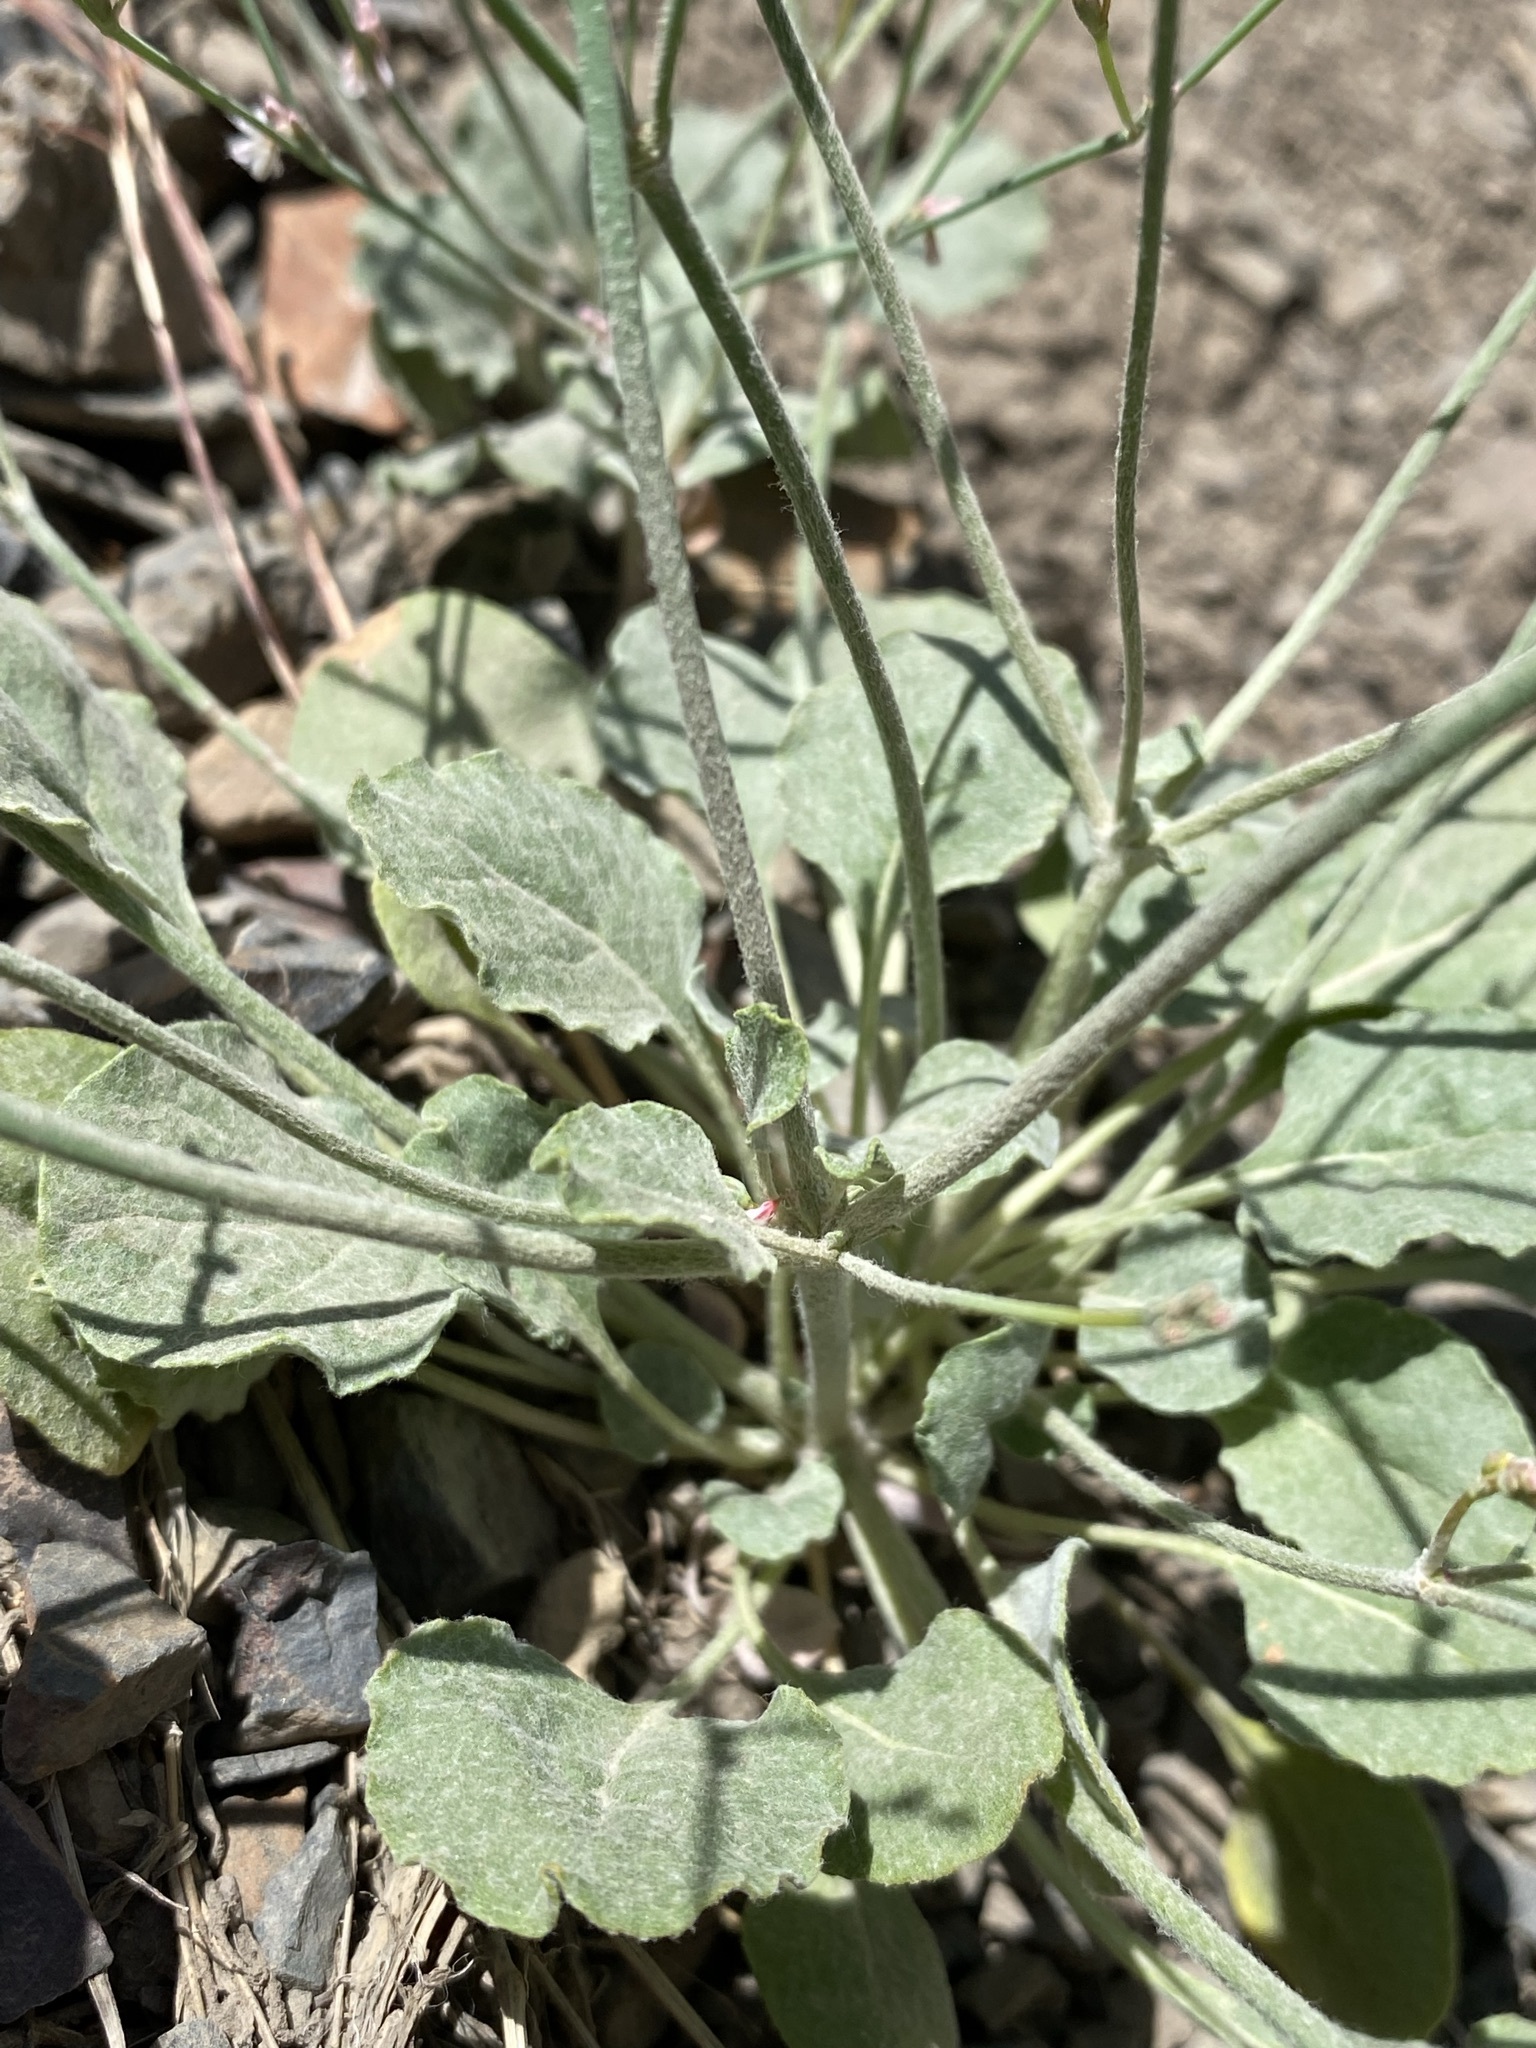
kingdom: Plantae
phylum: Tracheophyta
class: Magnoliopsida
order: Caryophyllales
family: Polygonaceae
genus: Eriogonum
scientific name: Eriogonum vimineum
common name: Wicker buckwheat
